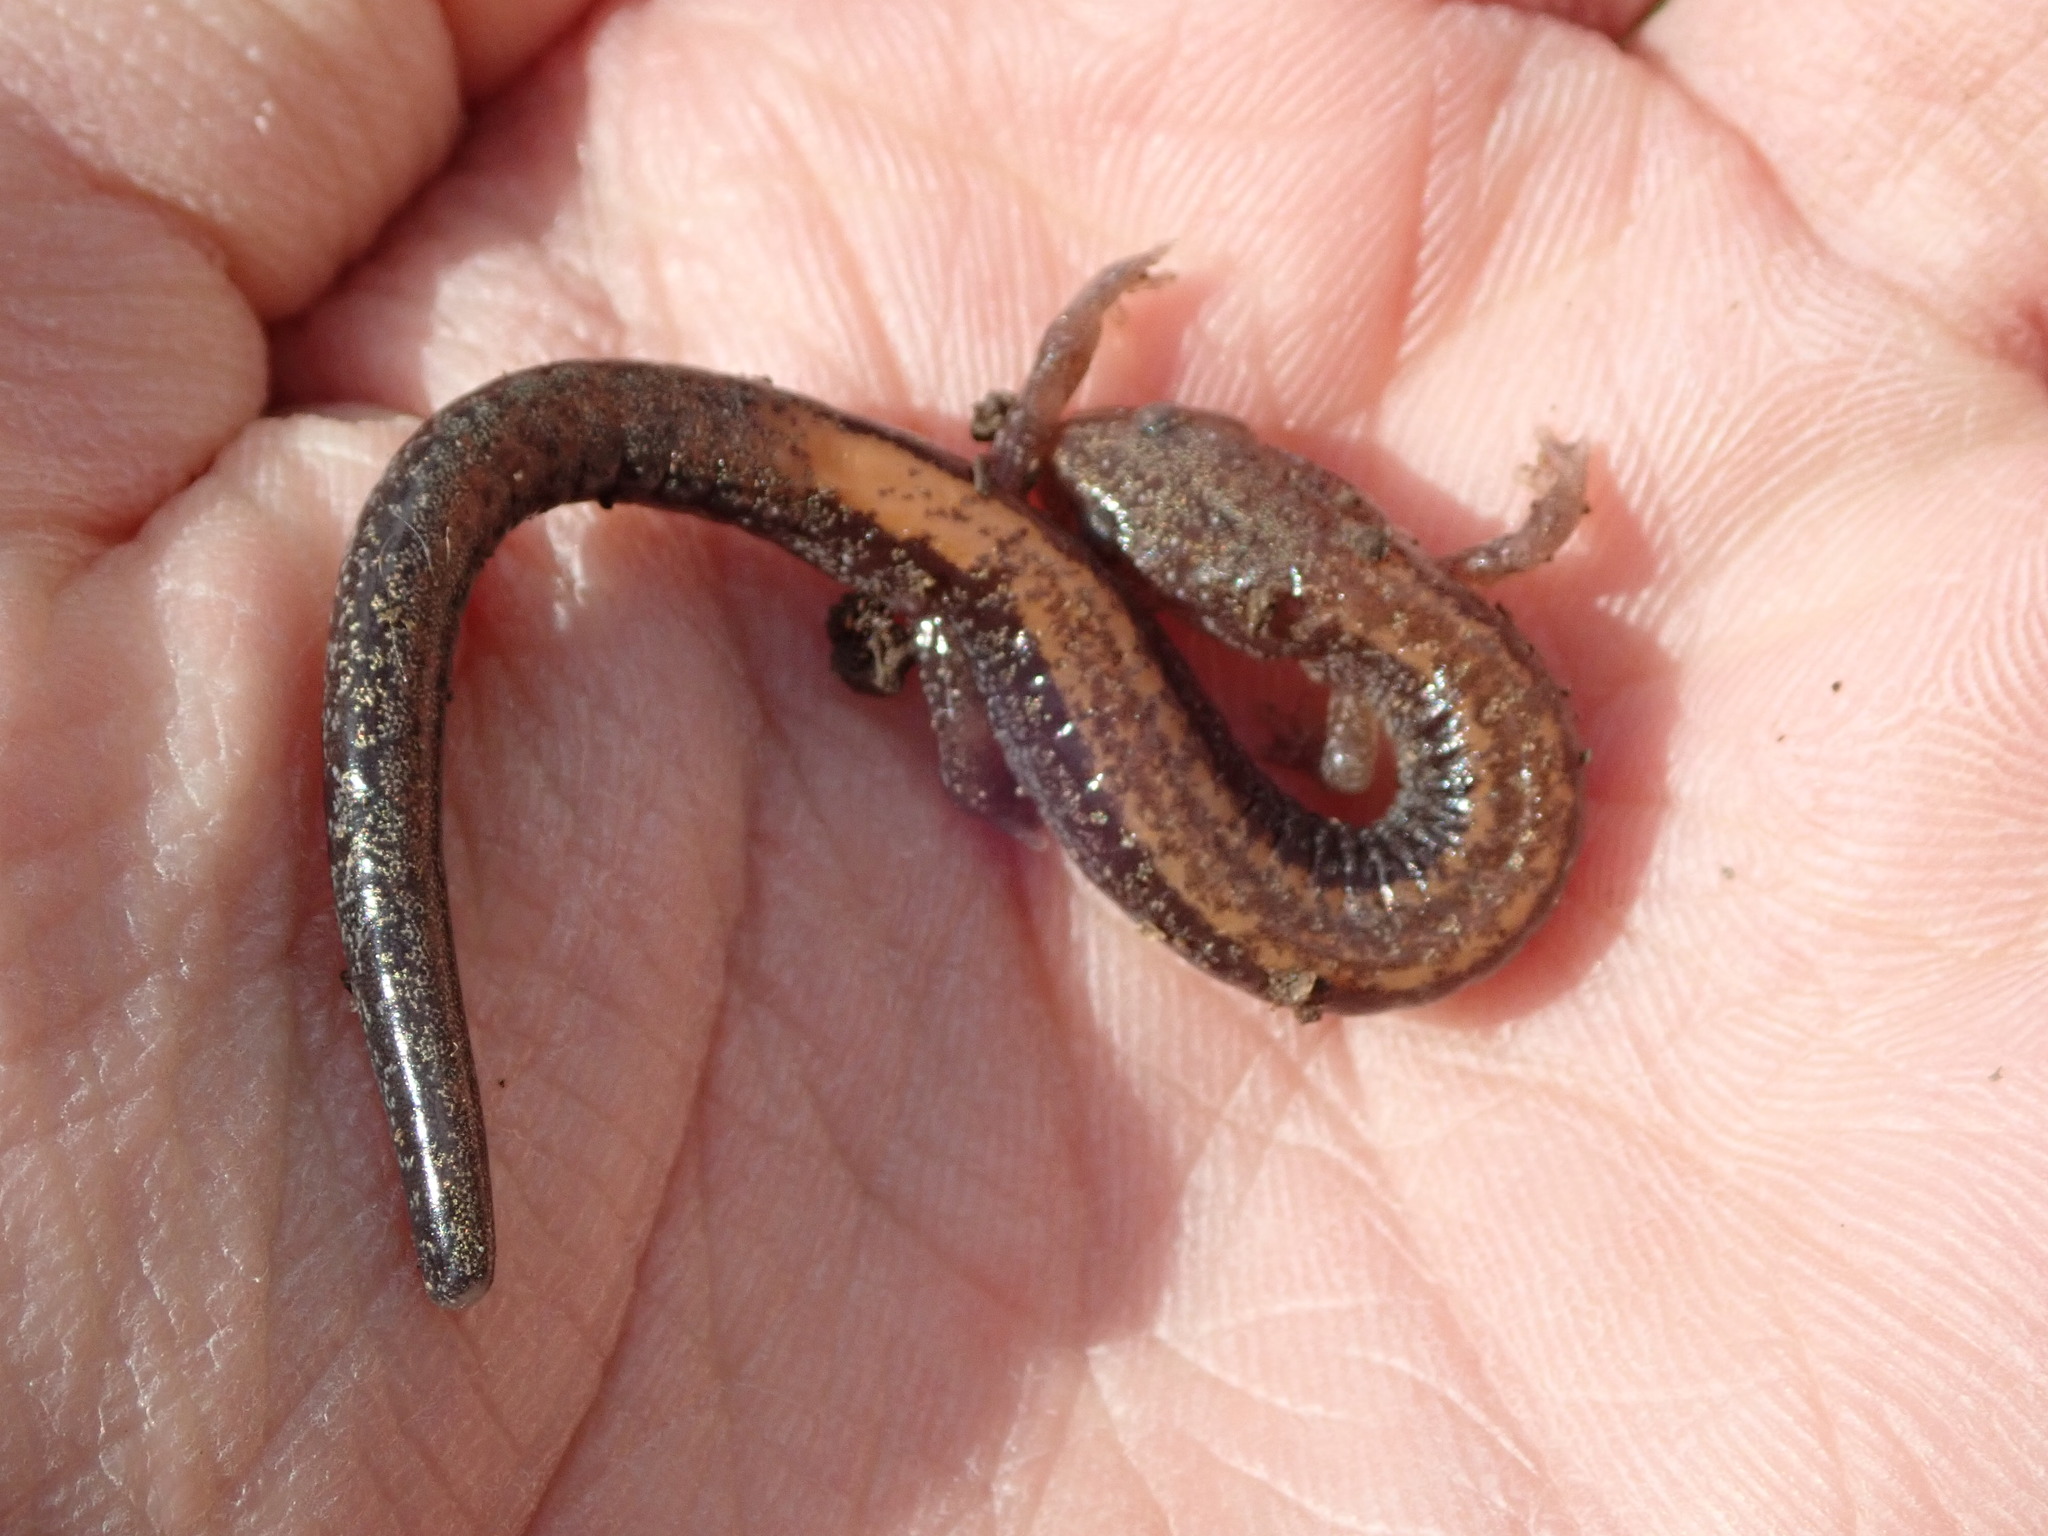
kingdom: Animalia
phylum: Chordata
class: Amphibia
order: Caudata
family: Plethodontidae
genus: Plethodon
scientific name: Plethodon cinereus
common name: Redback salamander
